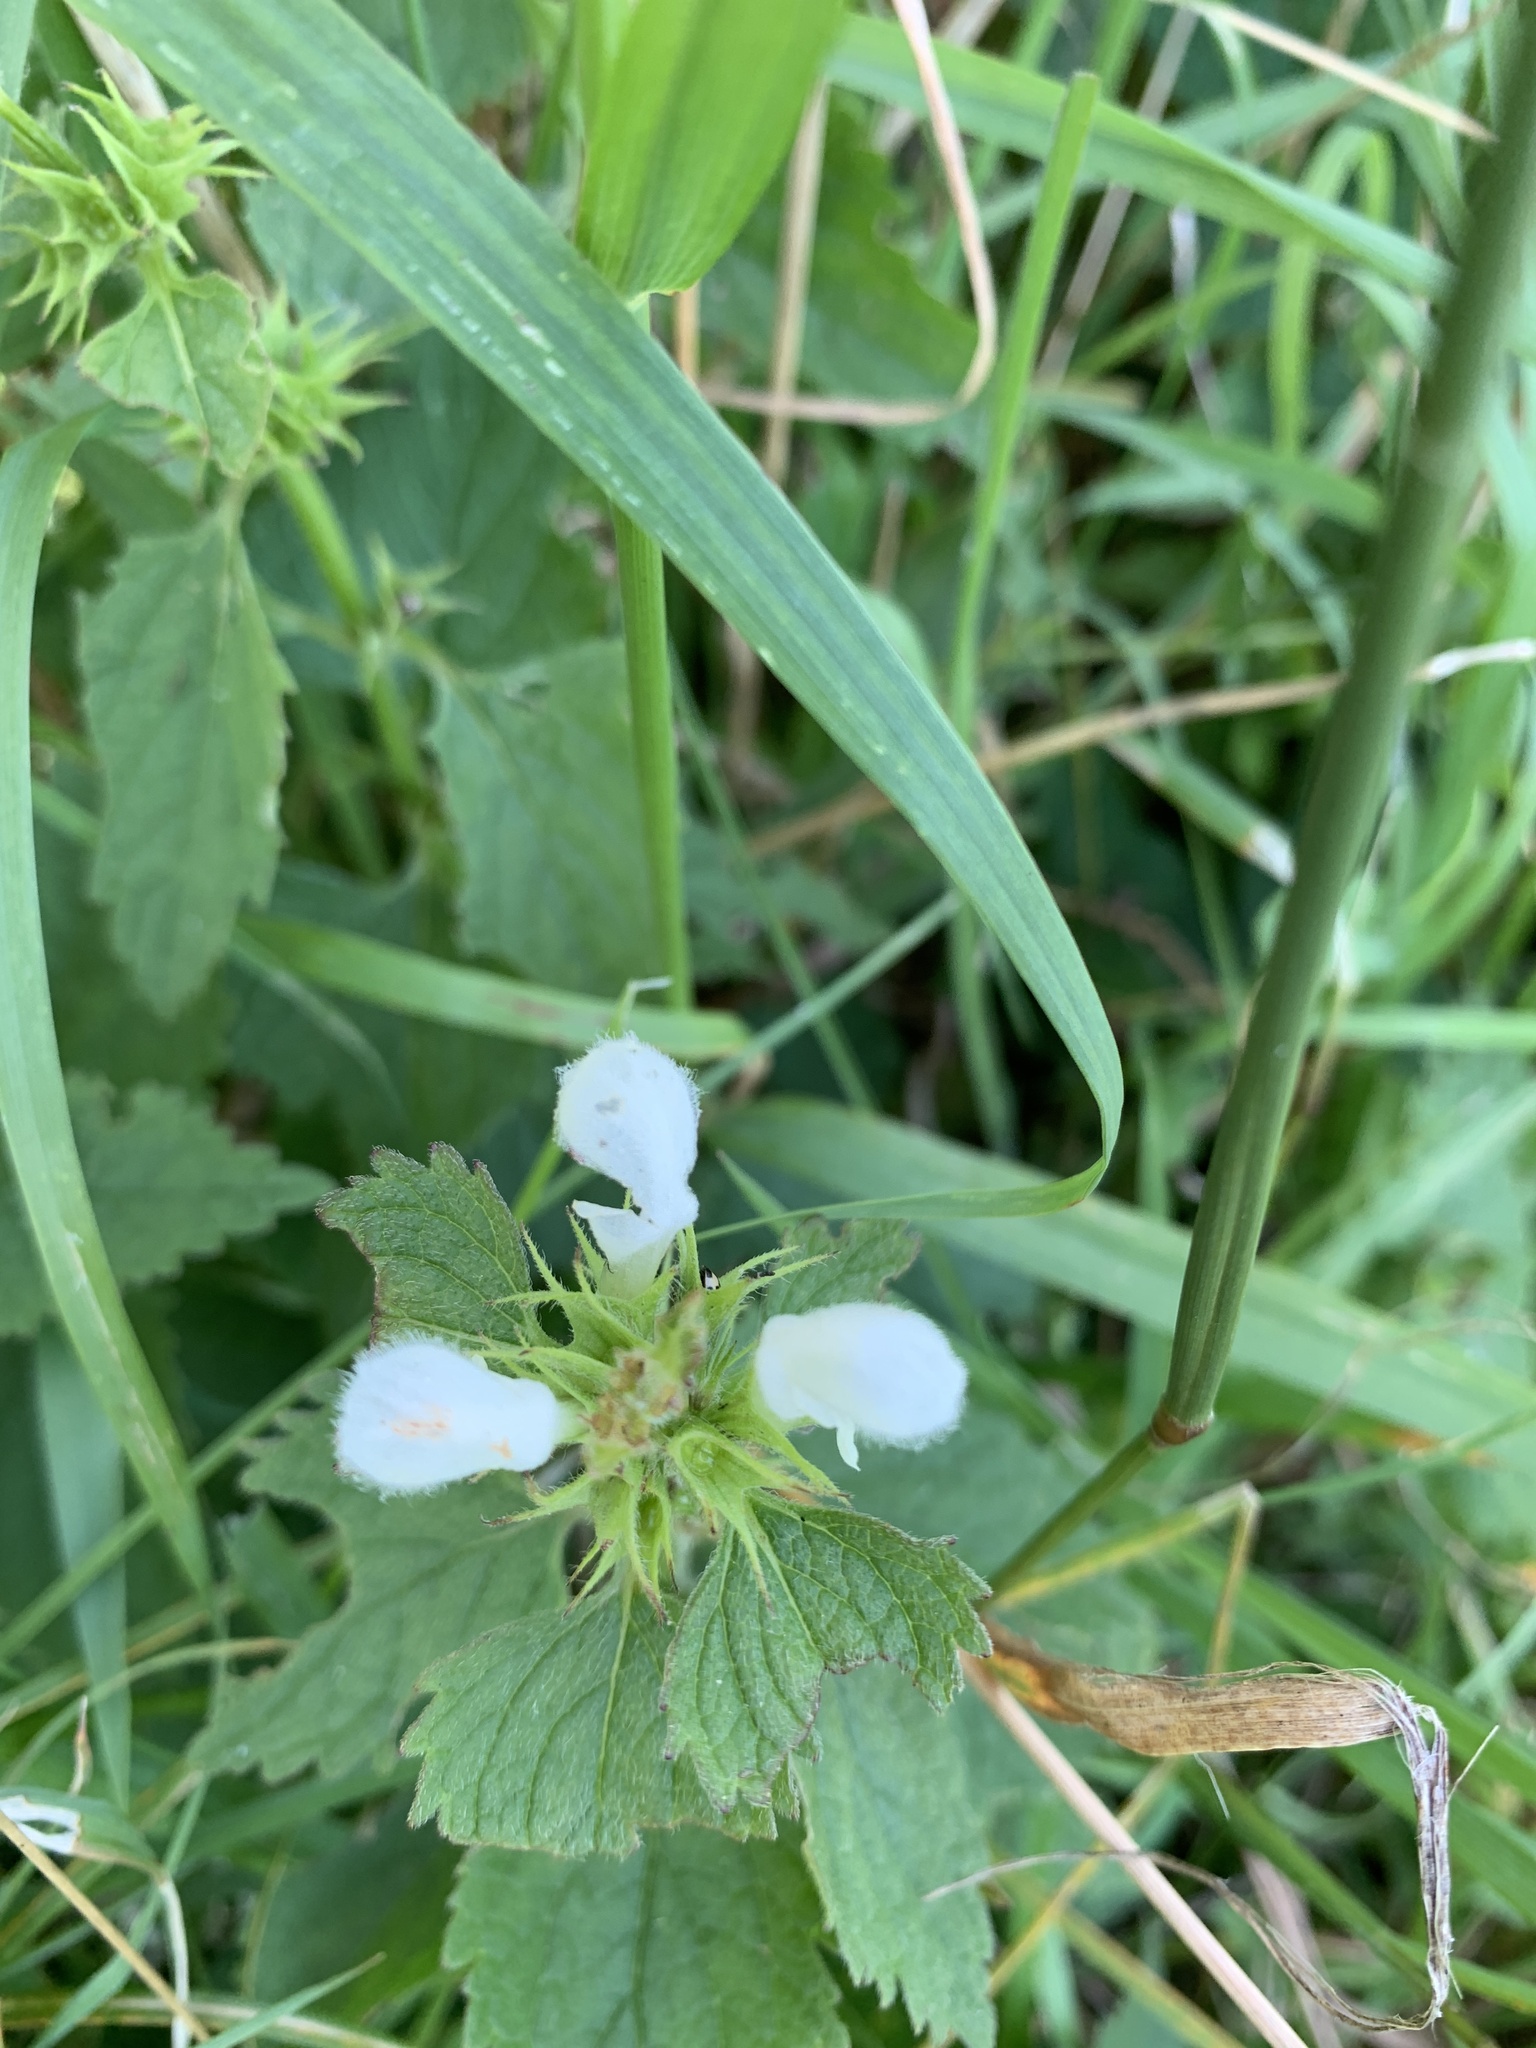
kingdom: Plantae
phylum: Tracheophyta
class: Magnoliopsida
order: Lamiales
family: Lamiaceae
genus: Lamium
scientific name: Lamium album
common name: White dead-nettle
